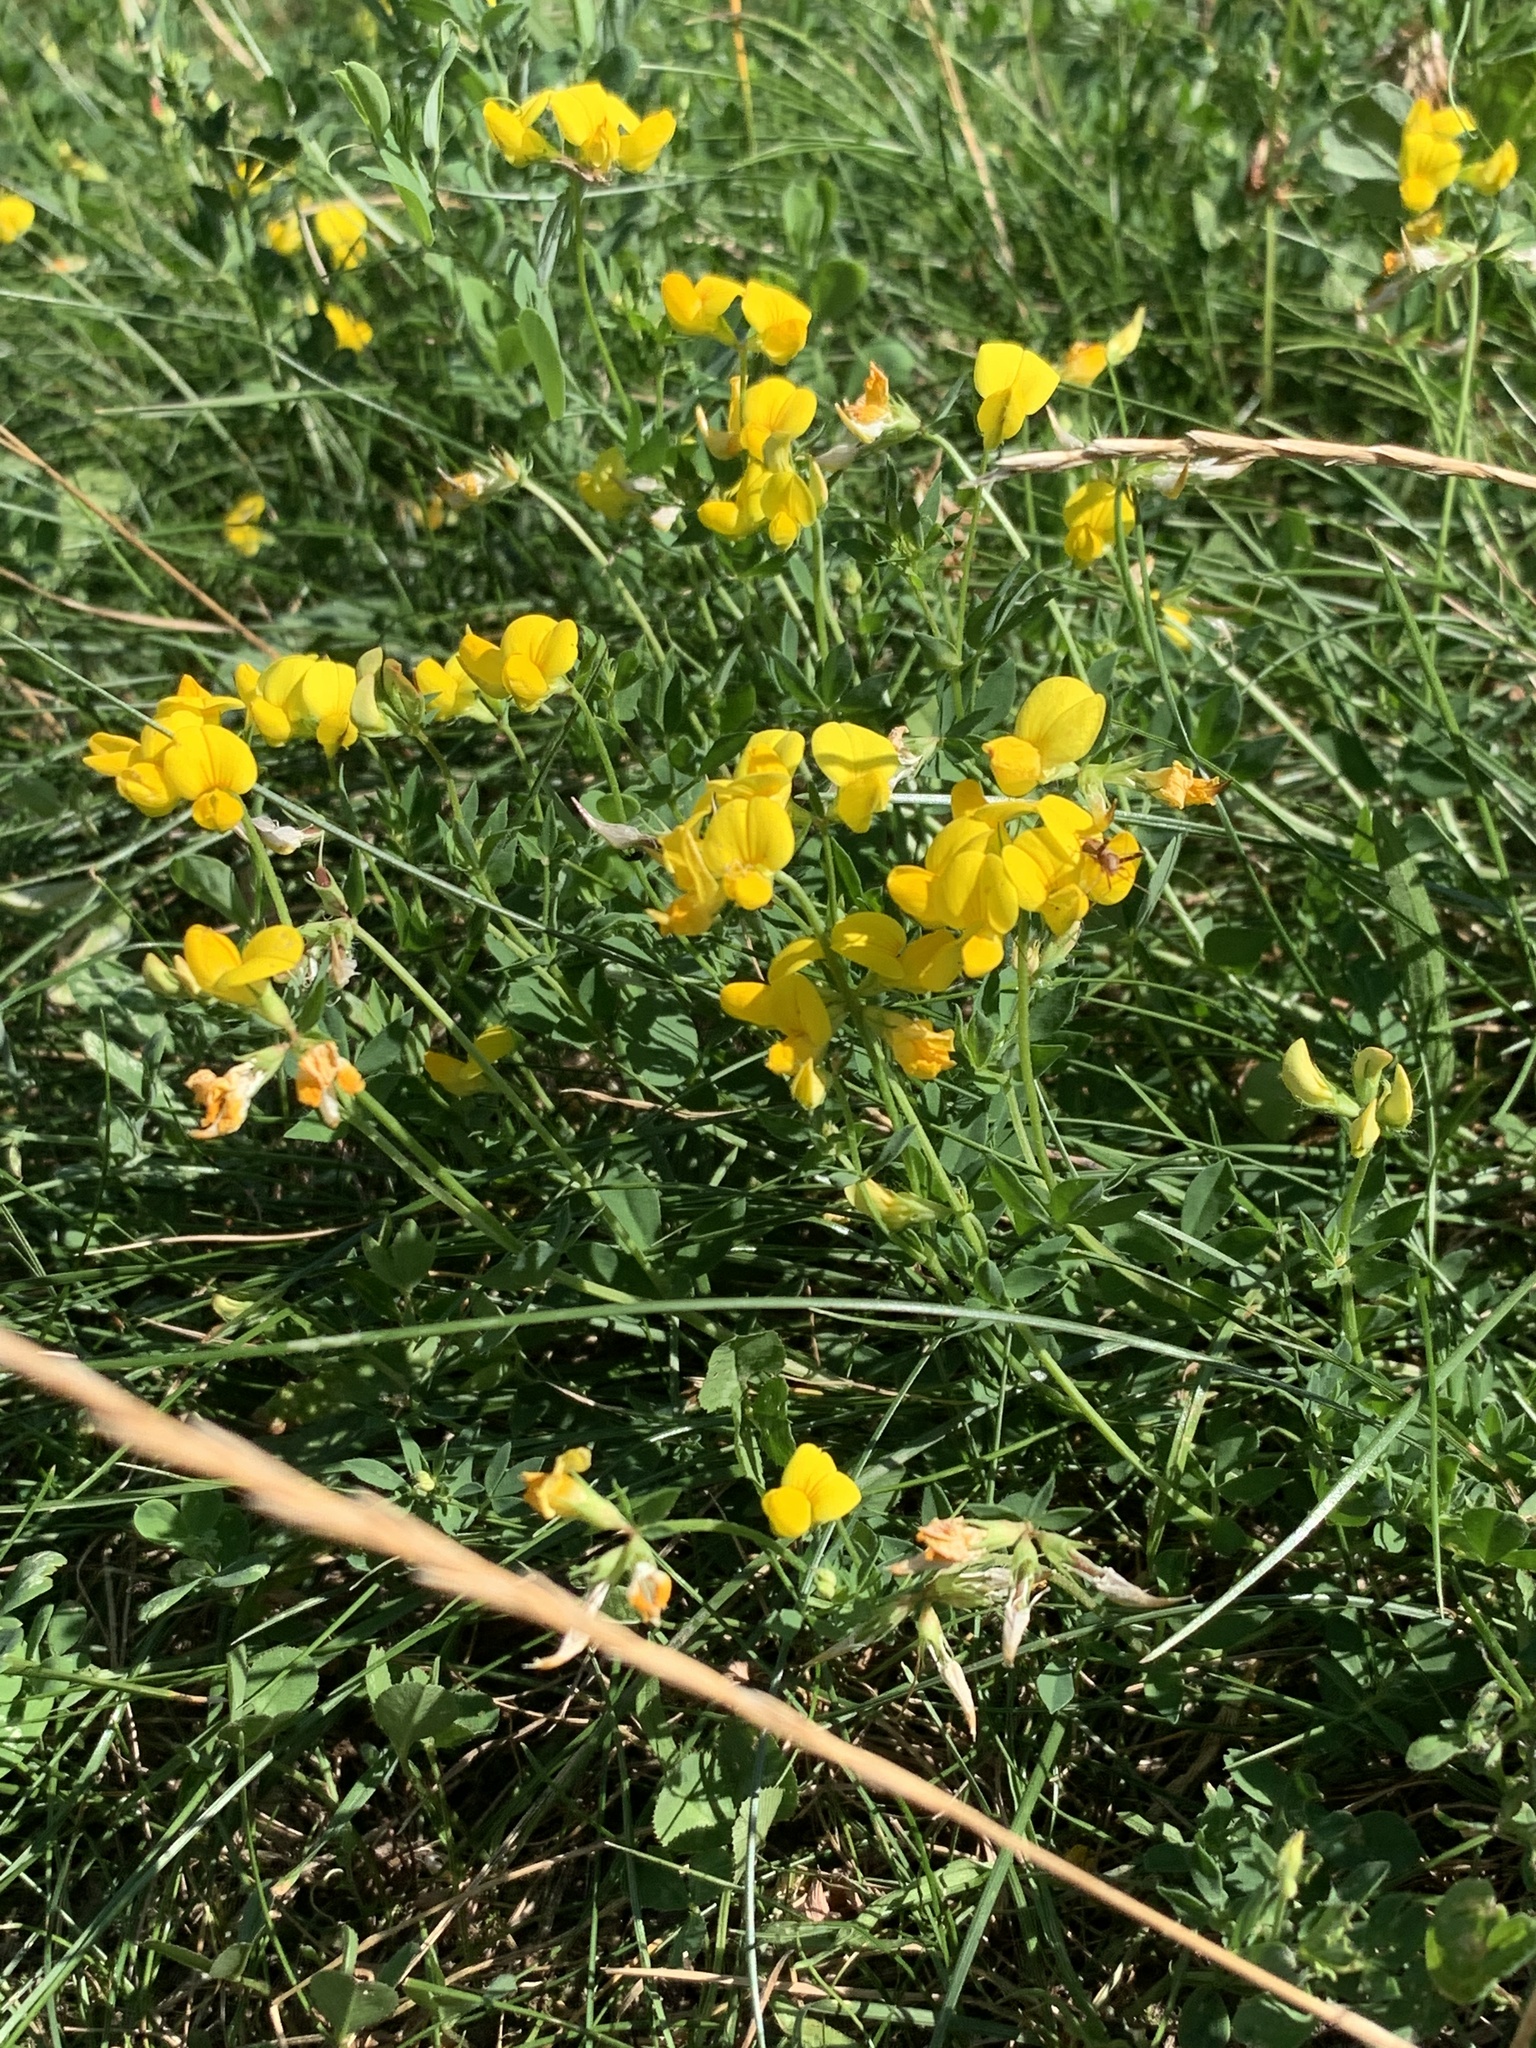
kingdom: Plantae
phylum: Tracheophyta
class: Magnoliopsida
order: Fabales
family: Fabaceae
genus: Lotus
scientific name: Lotus corniculatus
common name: Common bird's-foot-trefoil
